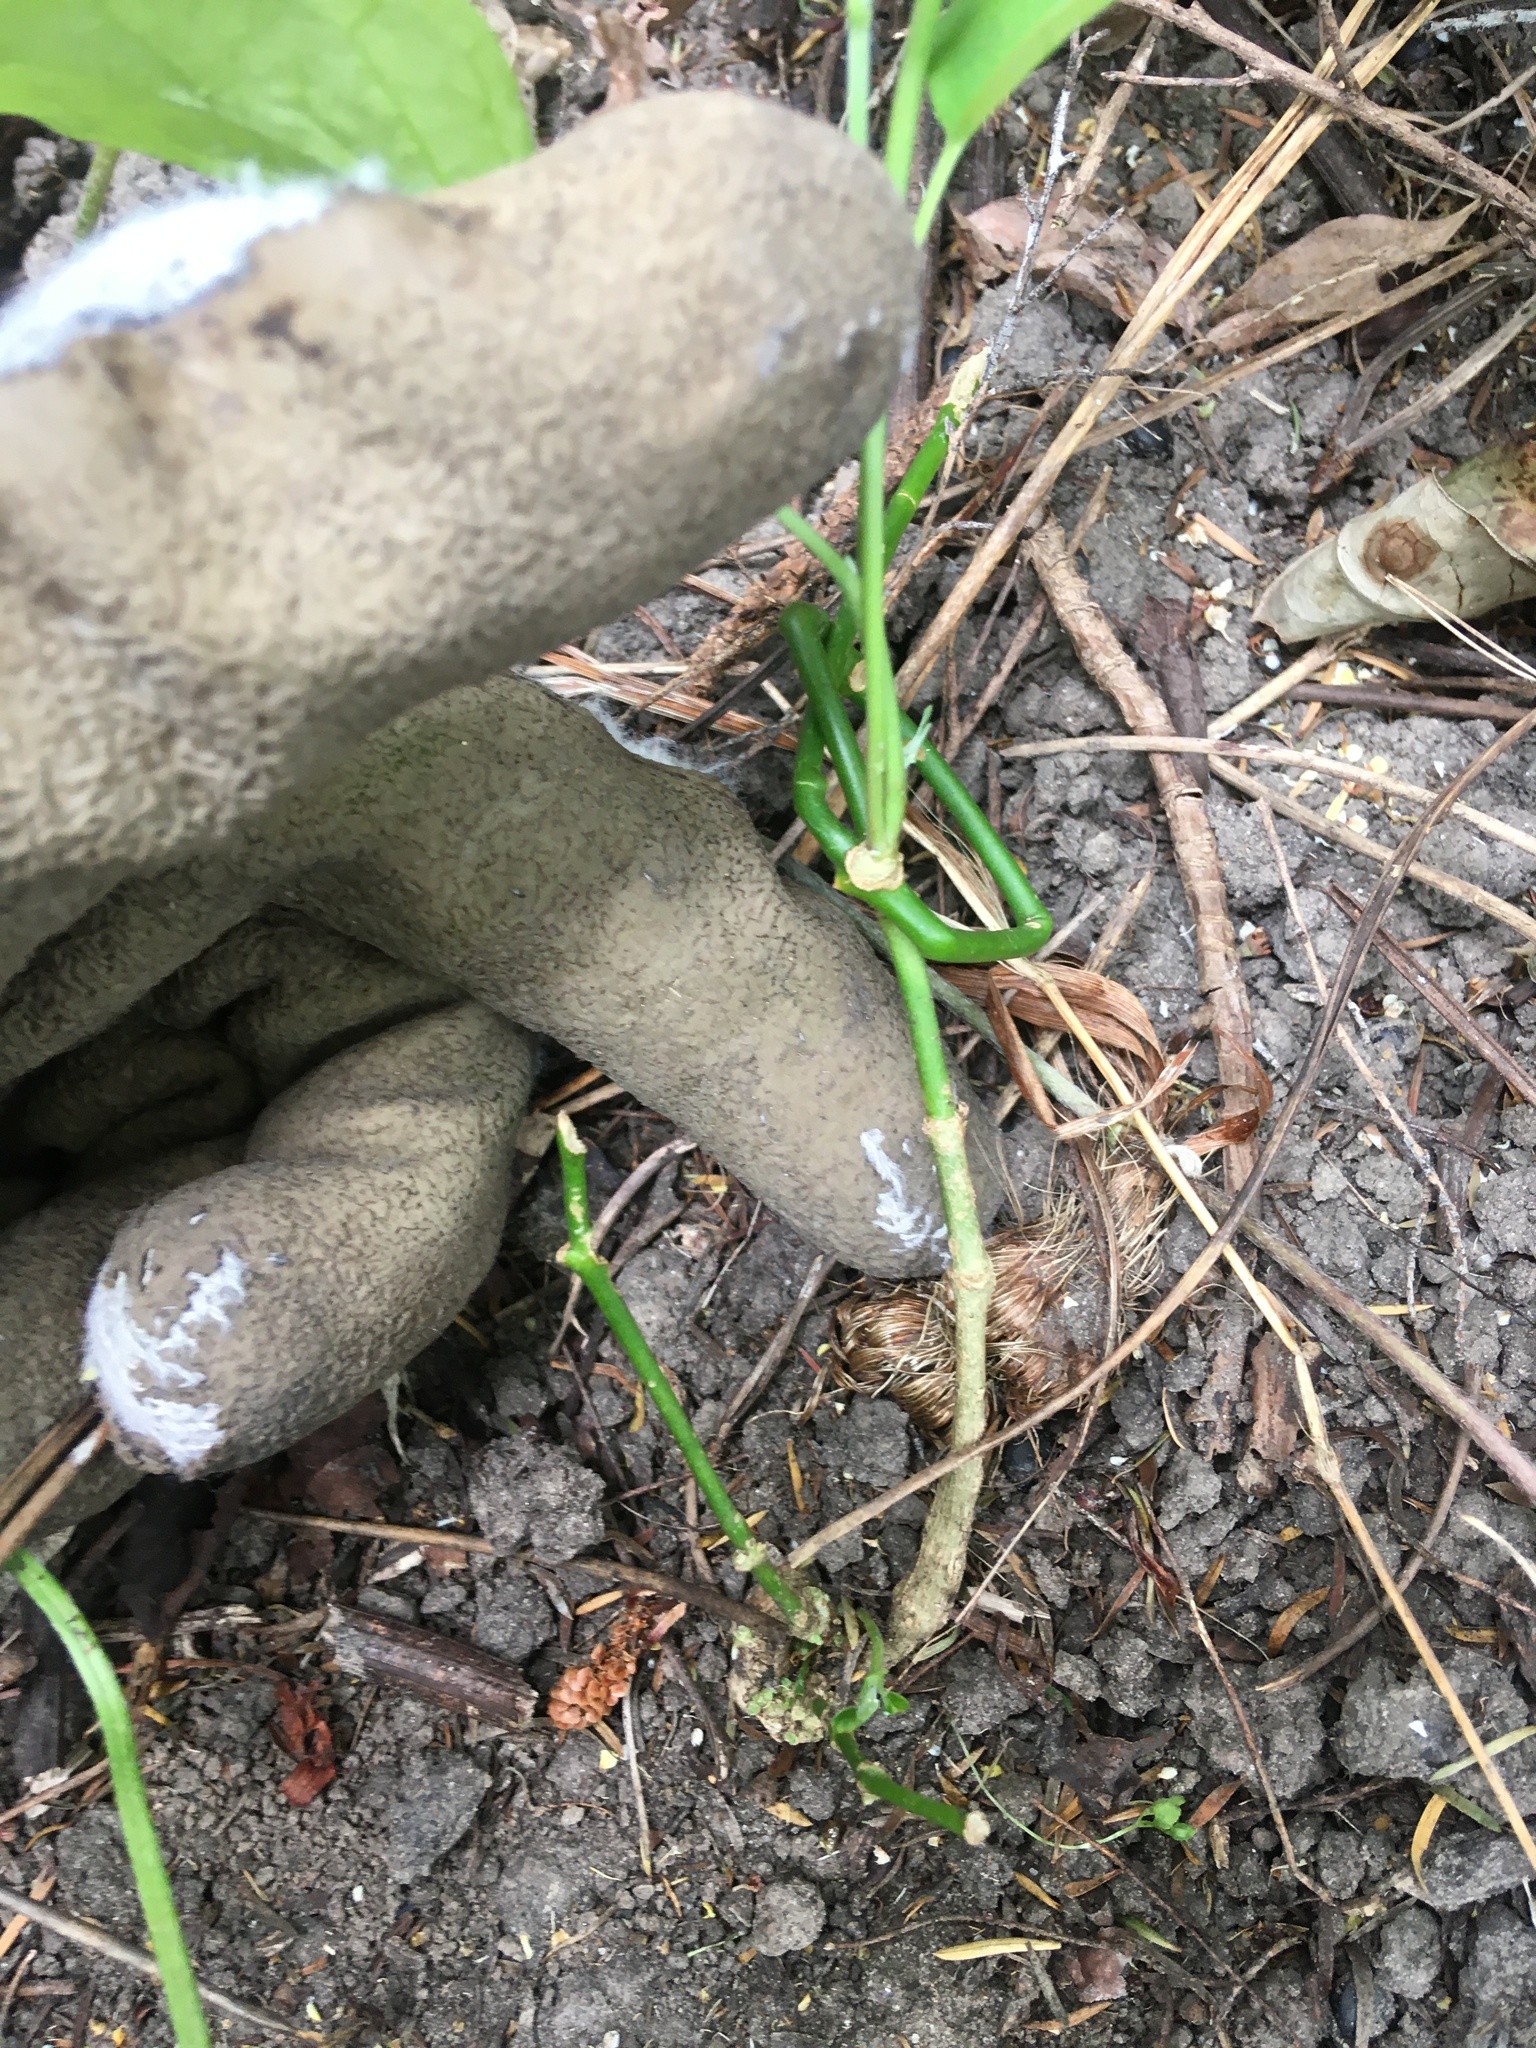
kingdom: Plantae
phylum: Tracheophyta
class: Magnoliopsida
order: Gentianales
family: Apocynaceae
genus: Araujia
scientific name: Araujia sericifera
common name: White bladderflower
